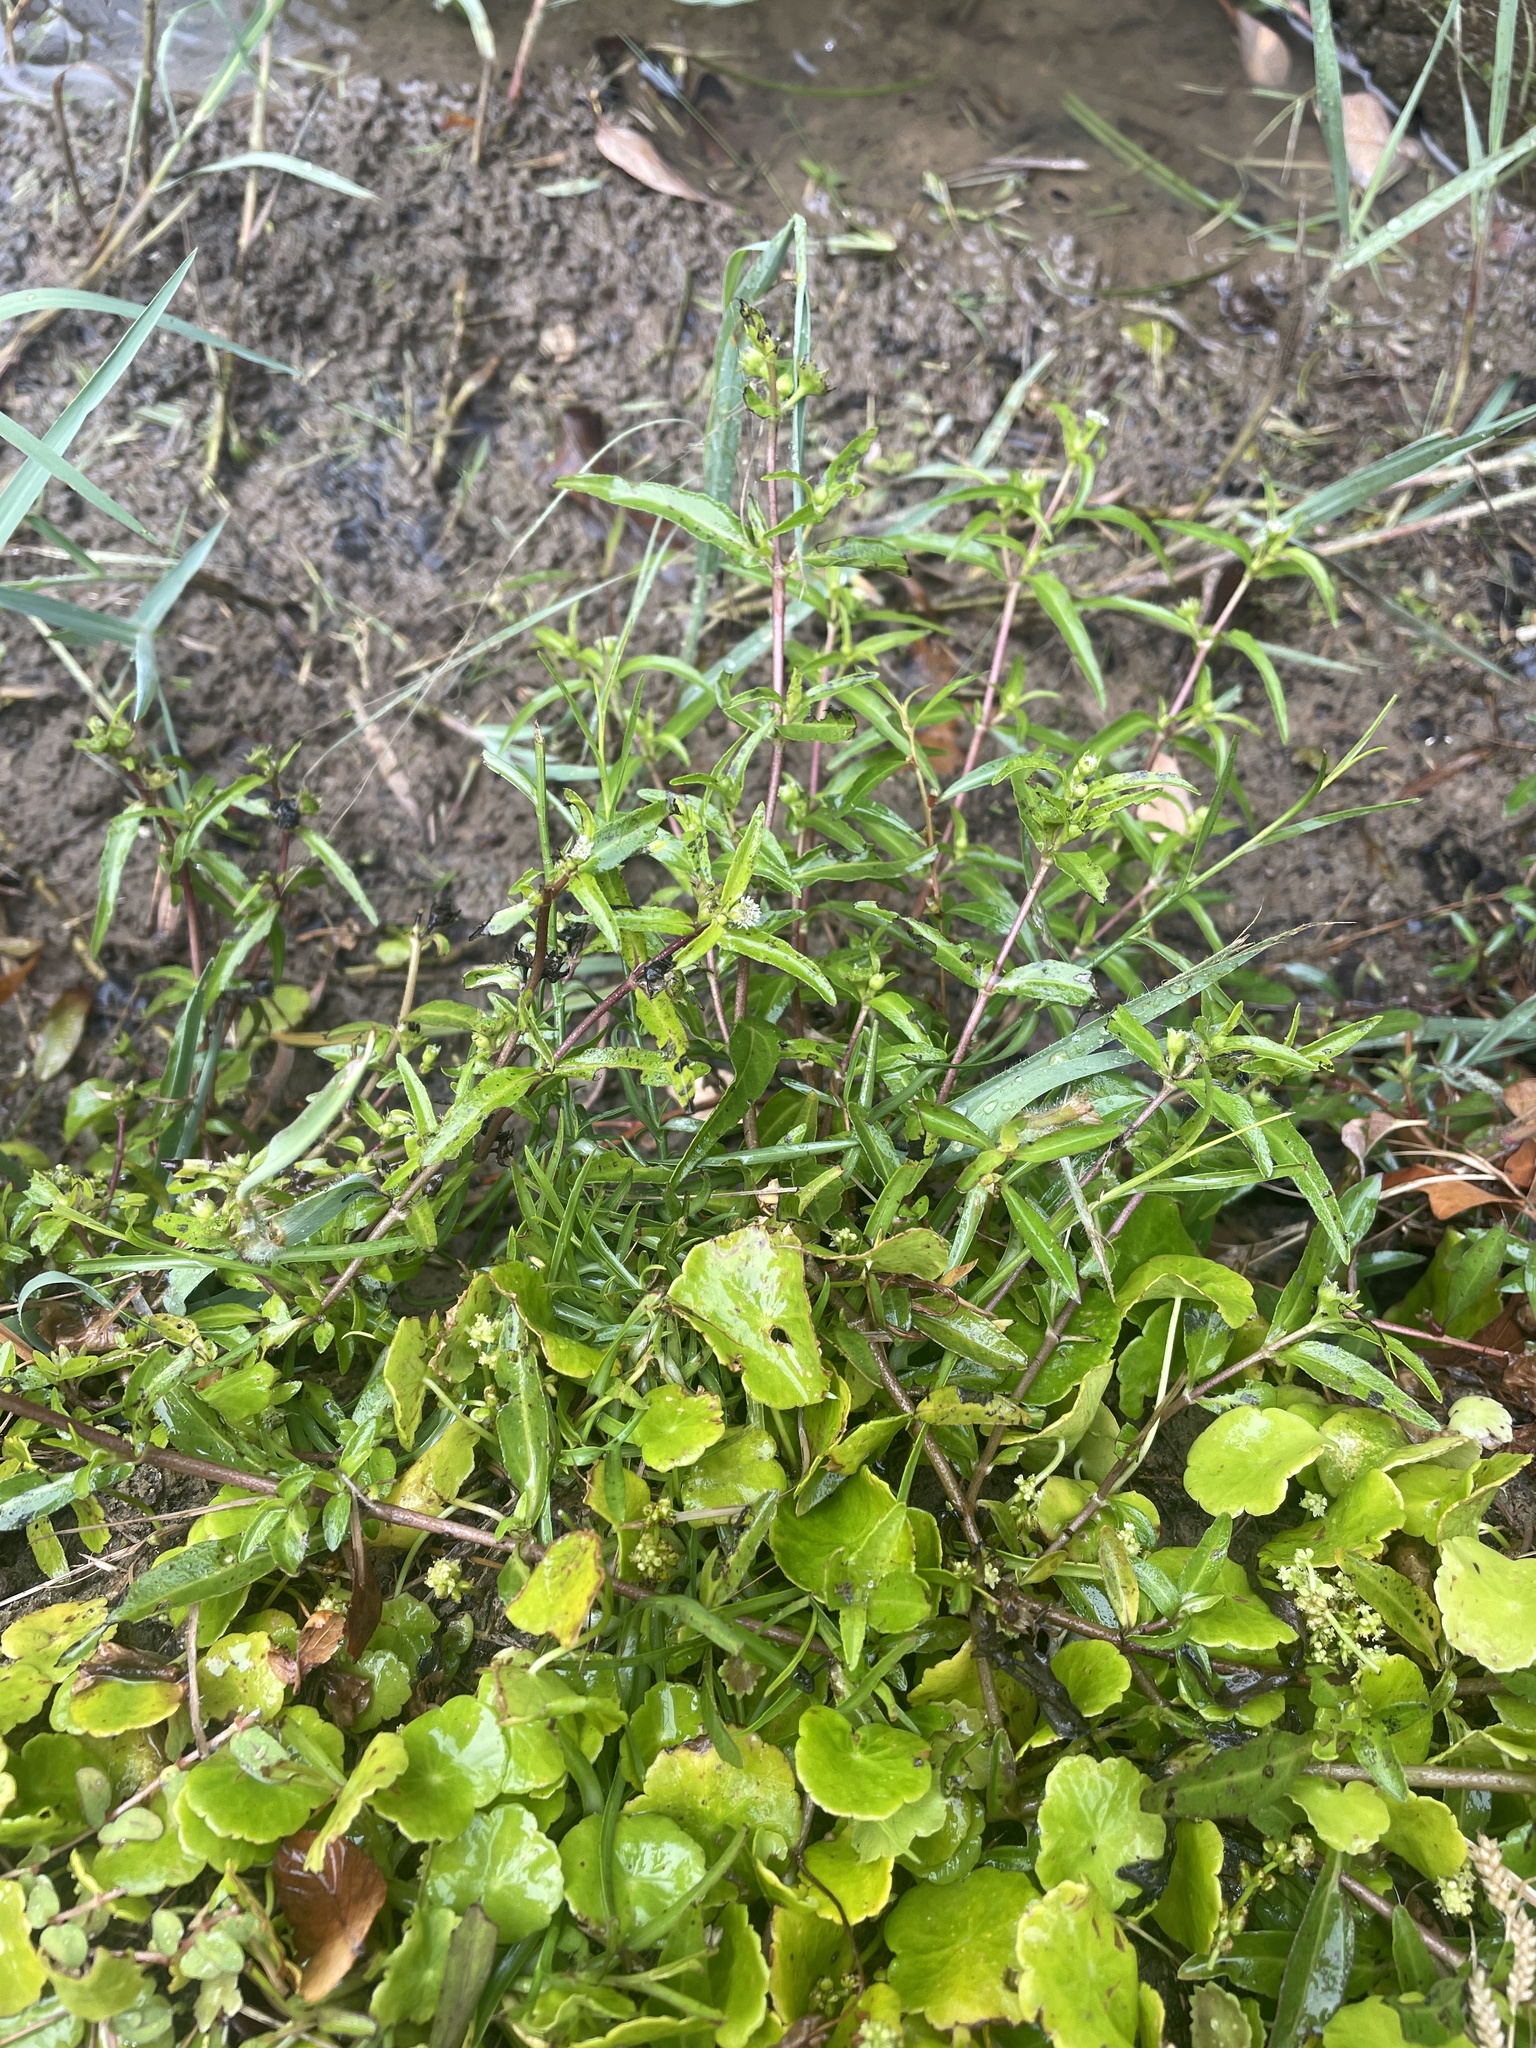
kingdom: Plantae
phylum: Tracheophyta
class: Magnoliopsida
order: Asterales
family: Asteraceae
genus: Eclipta
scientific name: Eclipta prostrata
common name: False daisy
